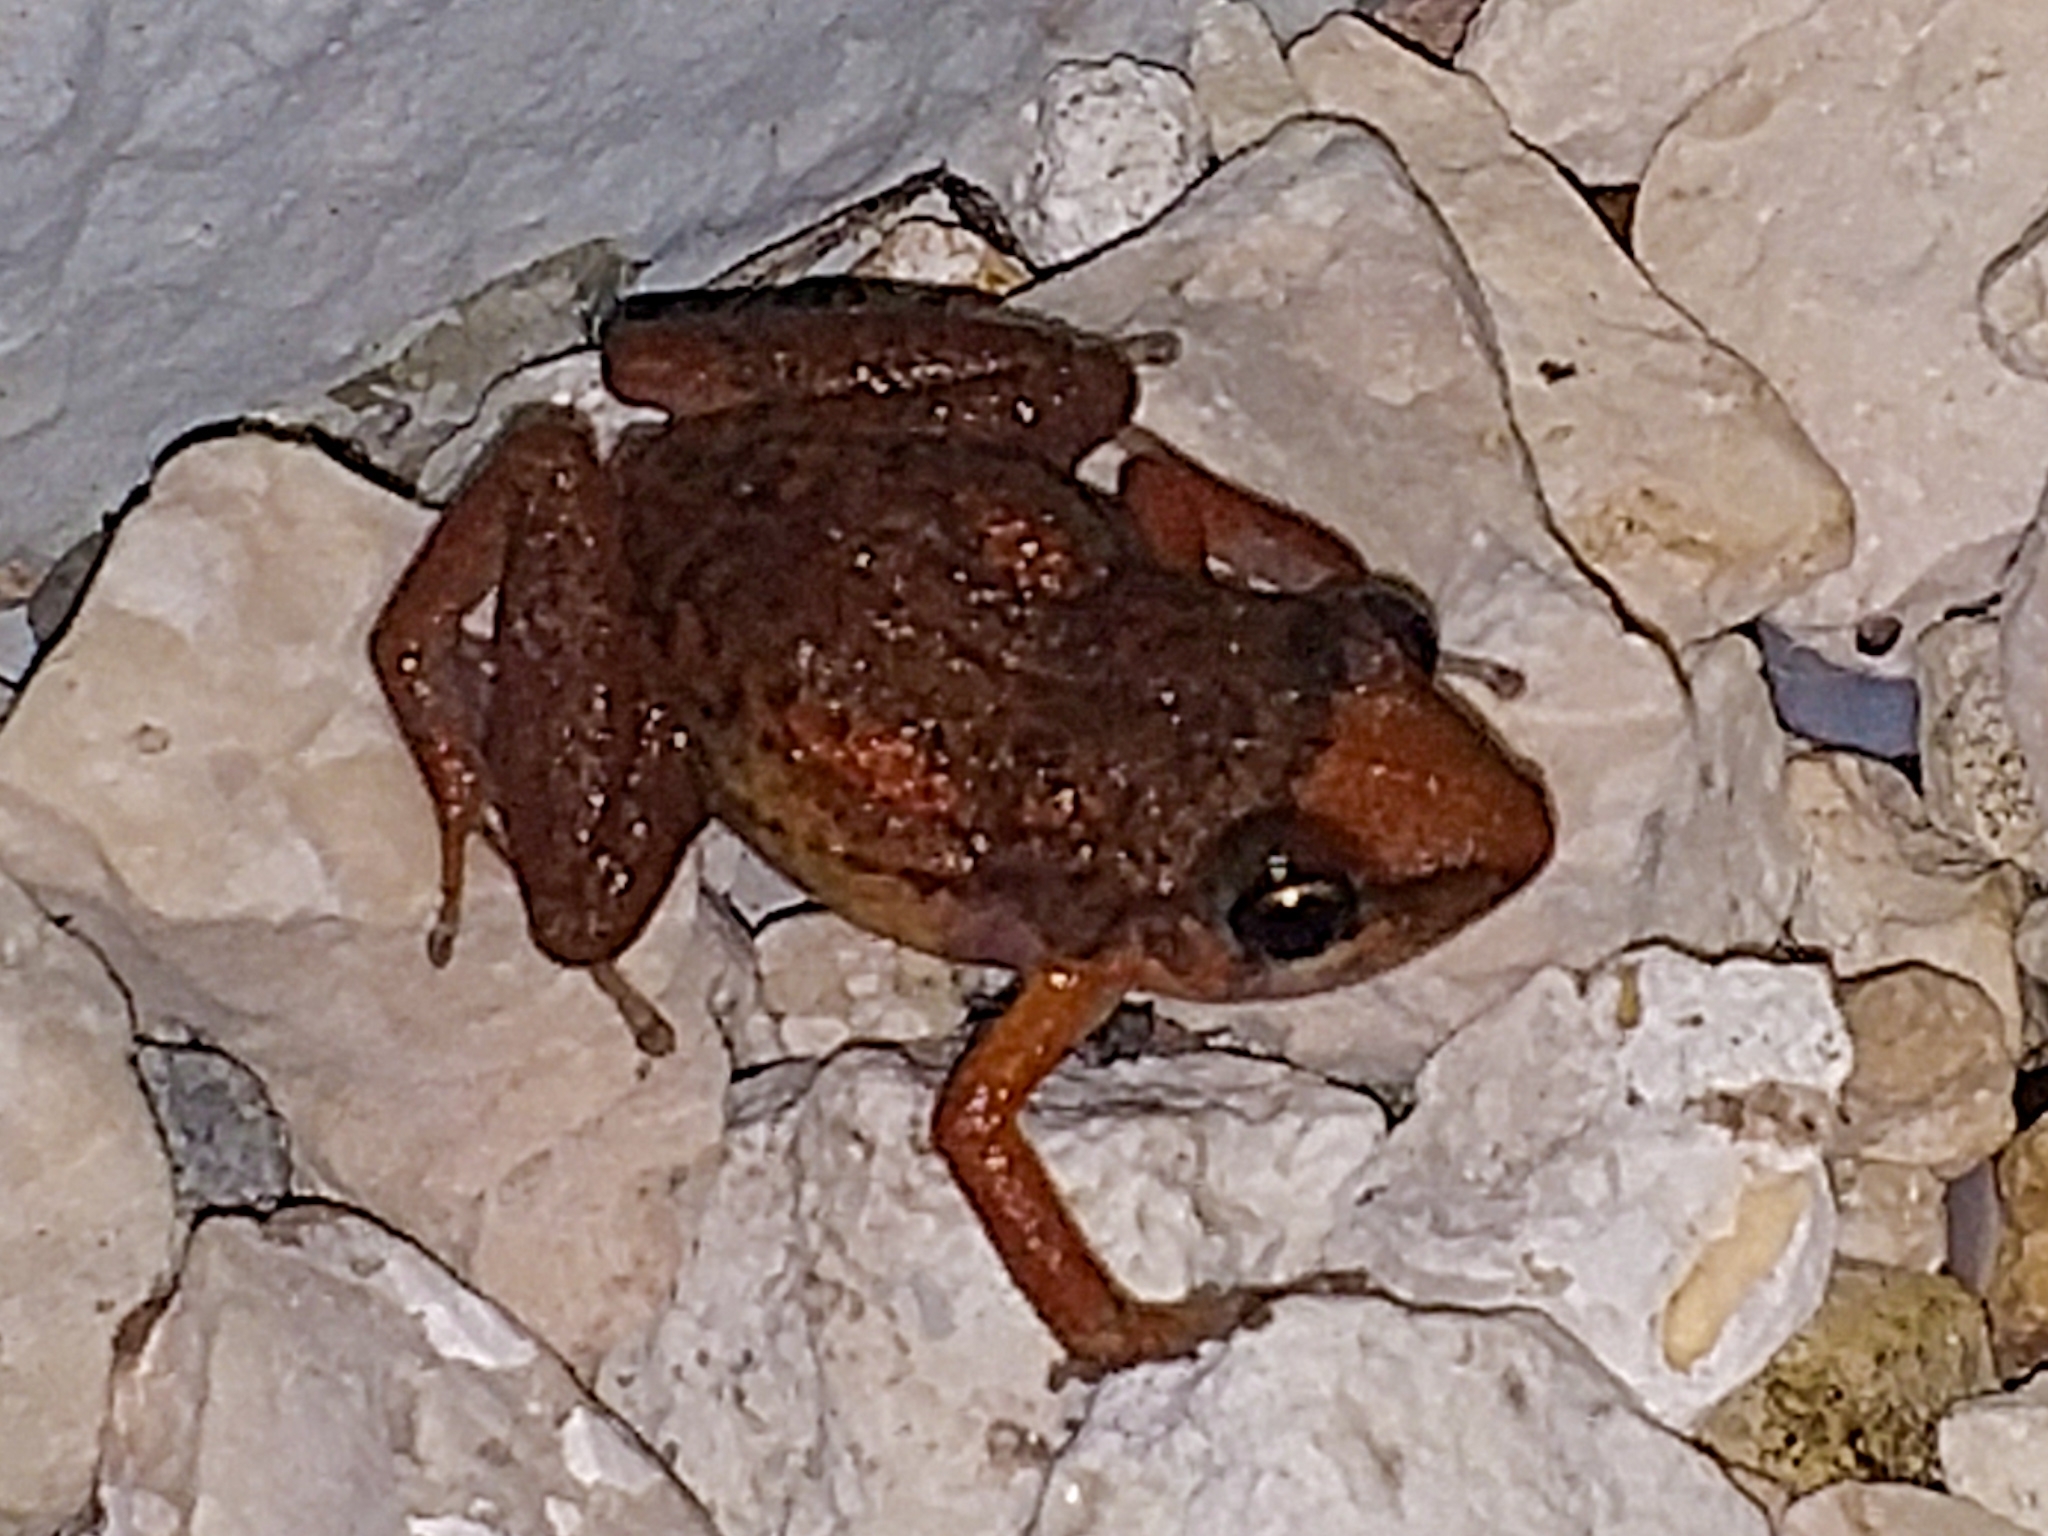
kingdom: Animalia
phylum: Chordata
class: Amphibia
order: Anura
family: Eleutherodactylidae
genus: Eleutherodactylus
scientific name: Eleutherodactylus planirostris
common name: Greenhouse frog
